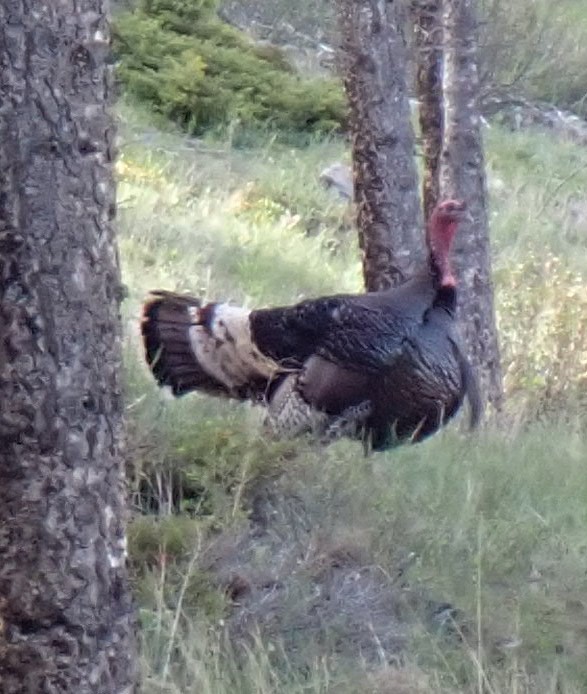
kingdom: Animalia
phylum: Chordata
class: Aves
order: Galliformes
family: Phasianidae
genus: Meleagris
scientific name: Meleagris gallopavo
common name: Wild turkey
